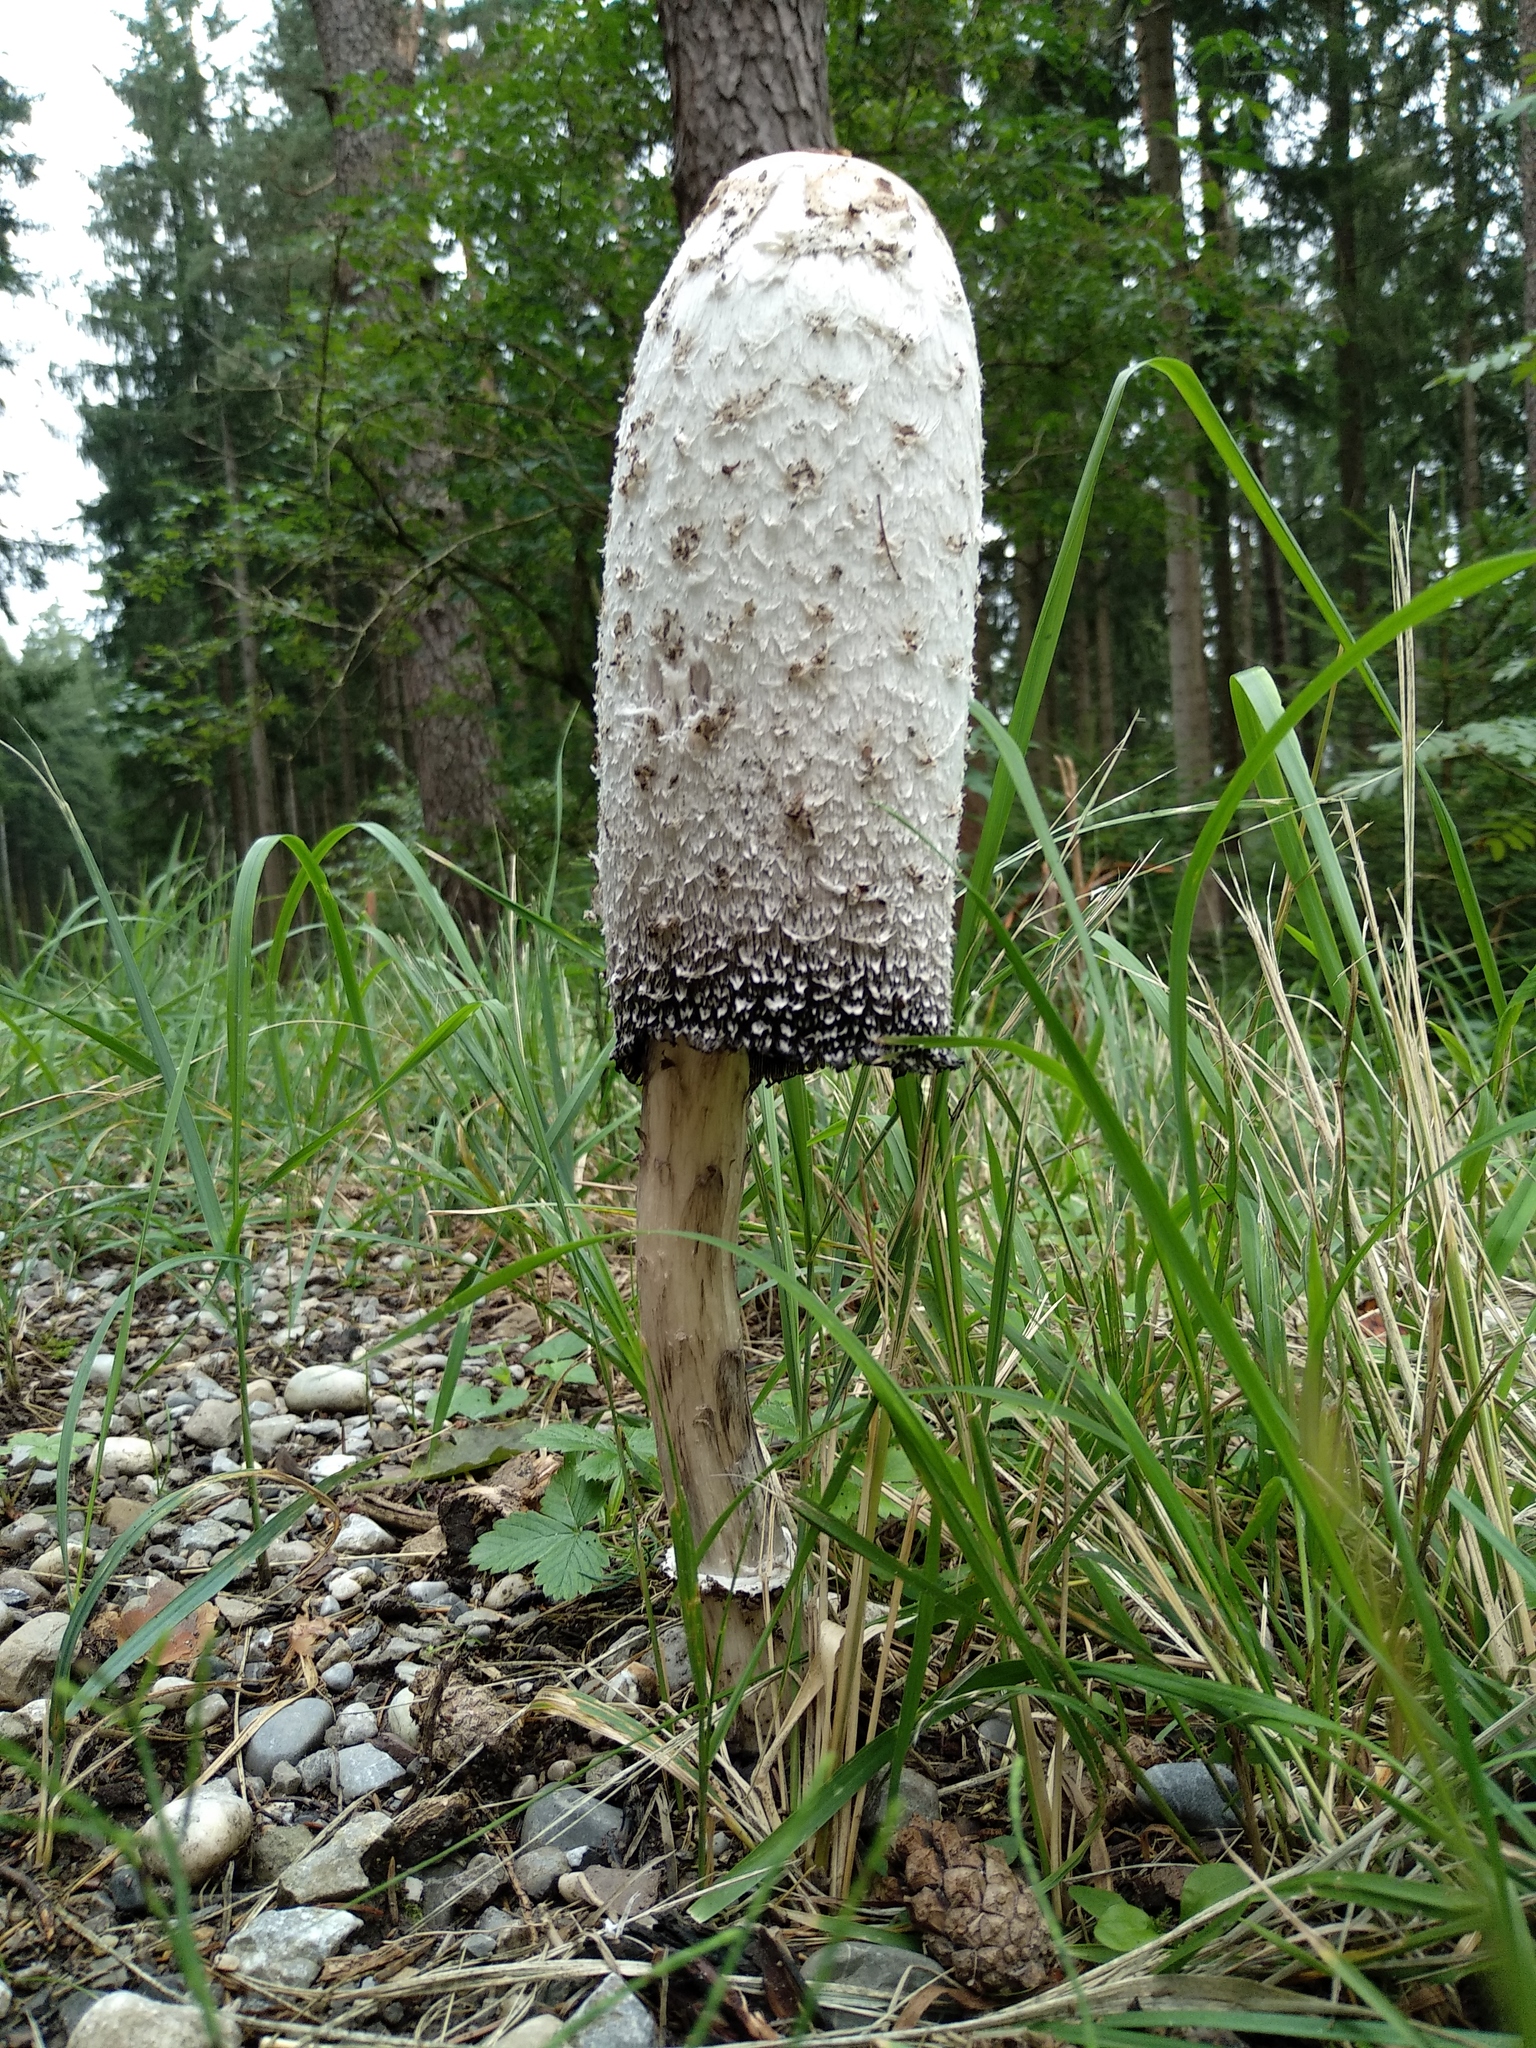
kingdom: Fungi
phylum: Basidiomycota
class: Agaricomycetes
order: Agaricales
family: Agaricaceae
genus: Coprinus
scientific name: Coprinus comatus
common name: Lawyer's wig
